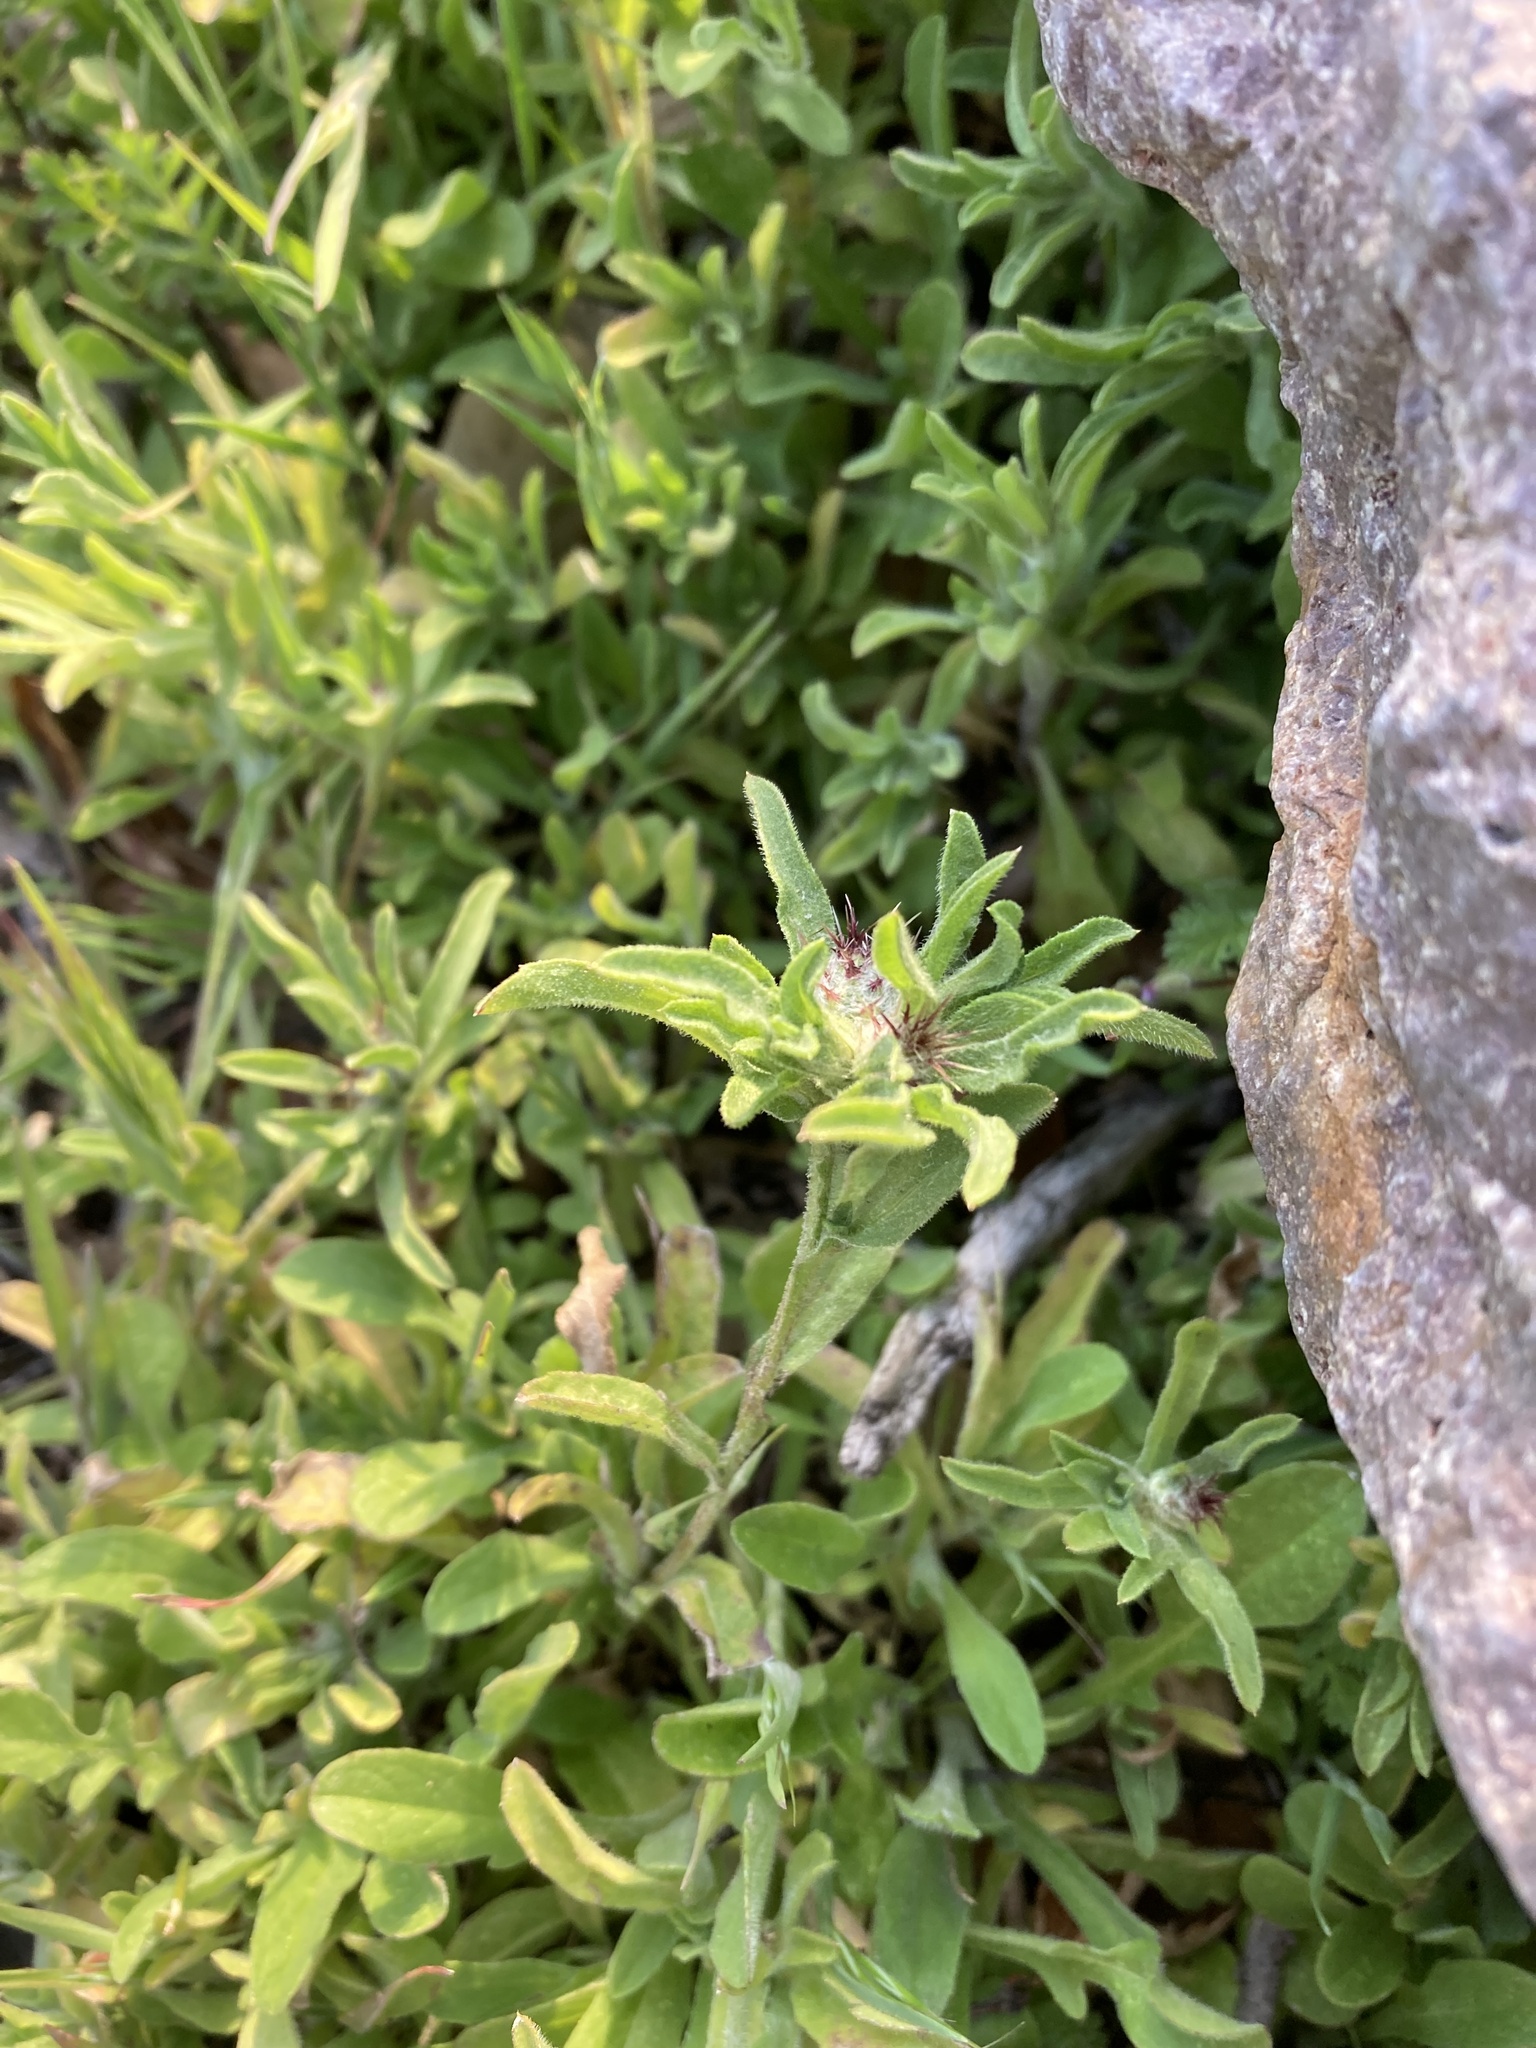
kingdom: Plantae
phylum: Tracheophyta
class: Magnoliopsida
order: Asterales
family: Asteraceae
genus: Centaurea
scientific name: Centaurea melitensis
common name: Maltese star-thistle
